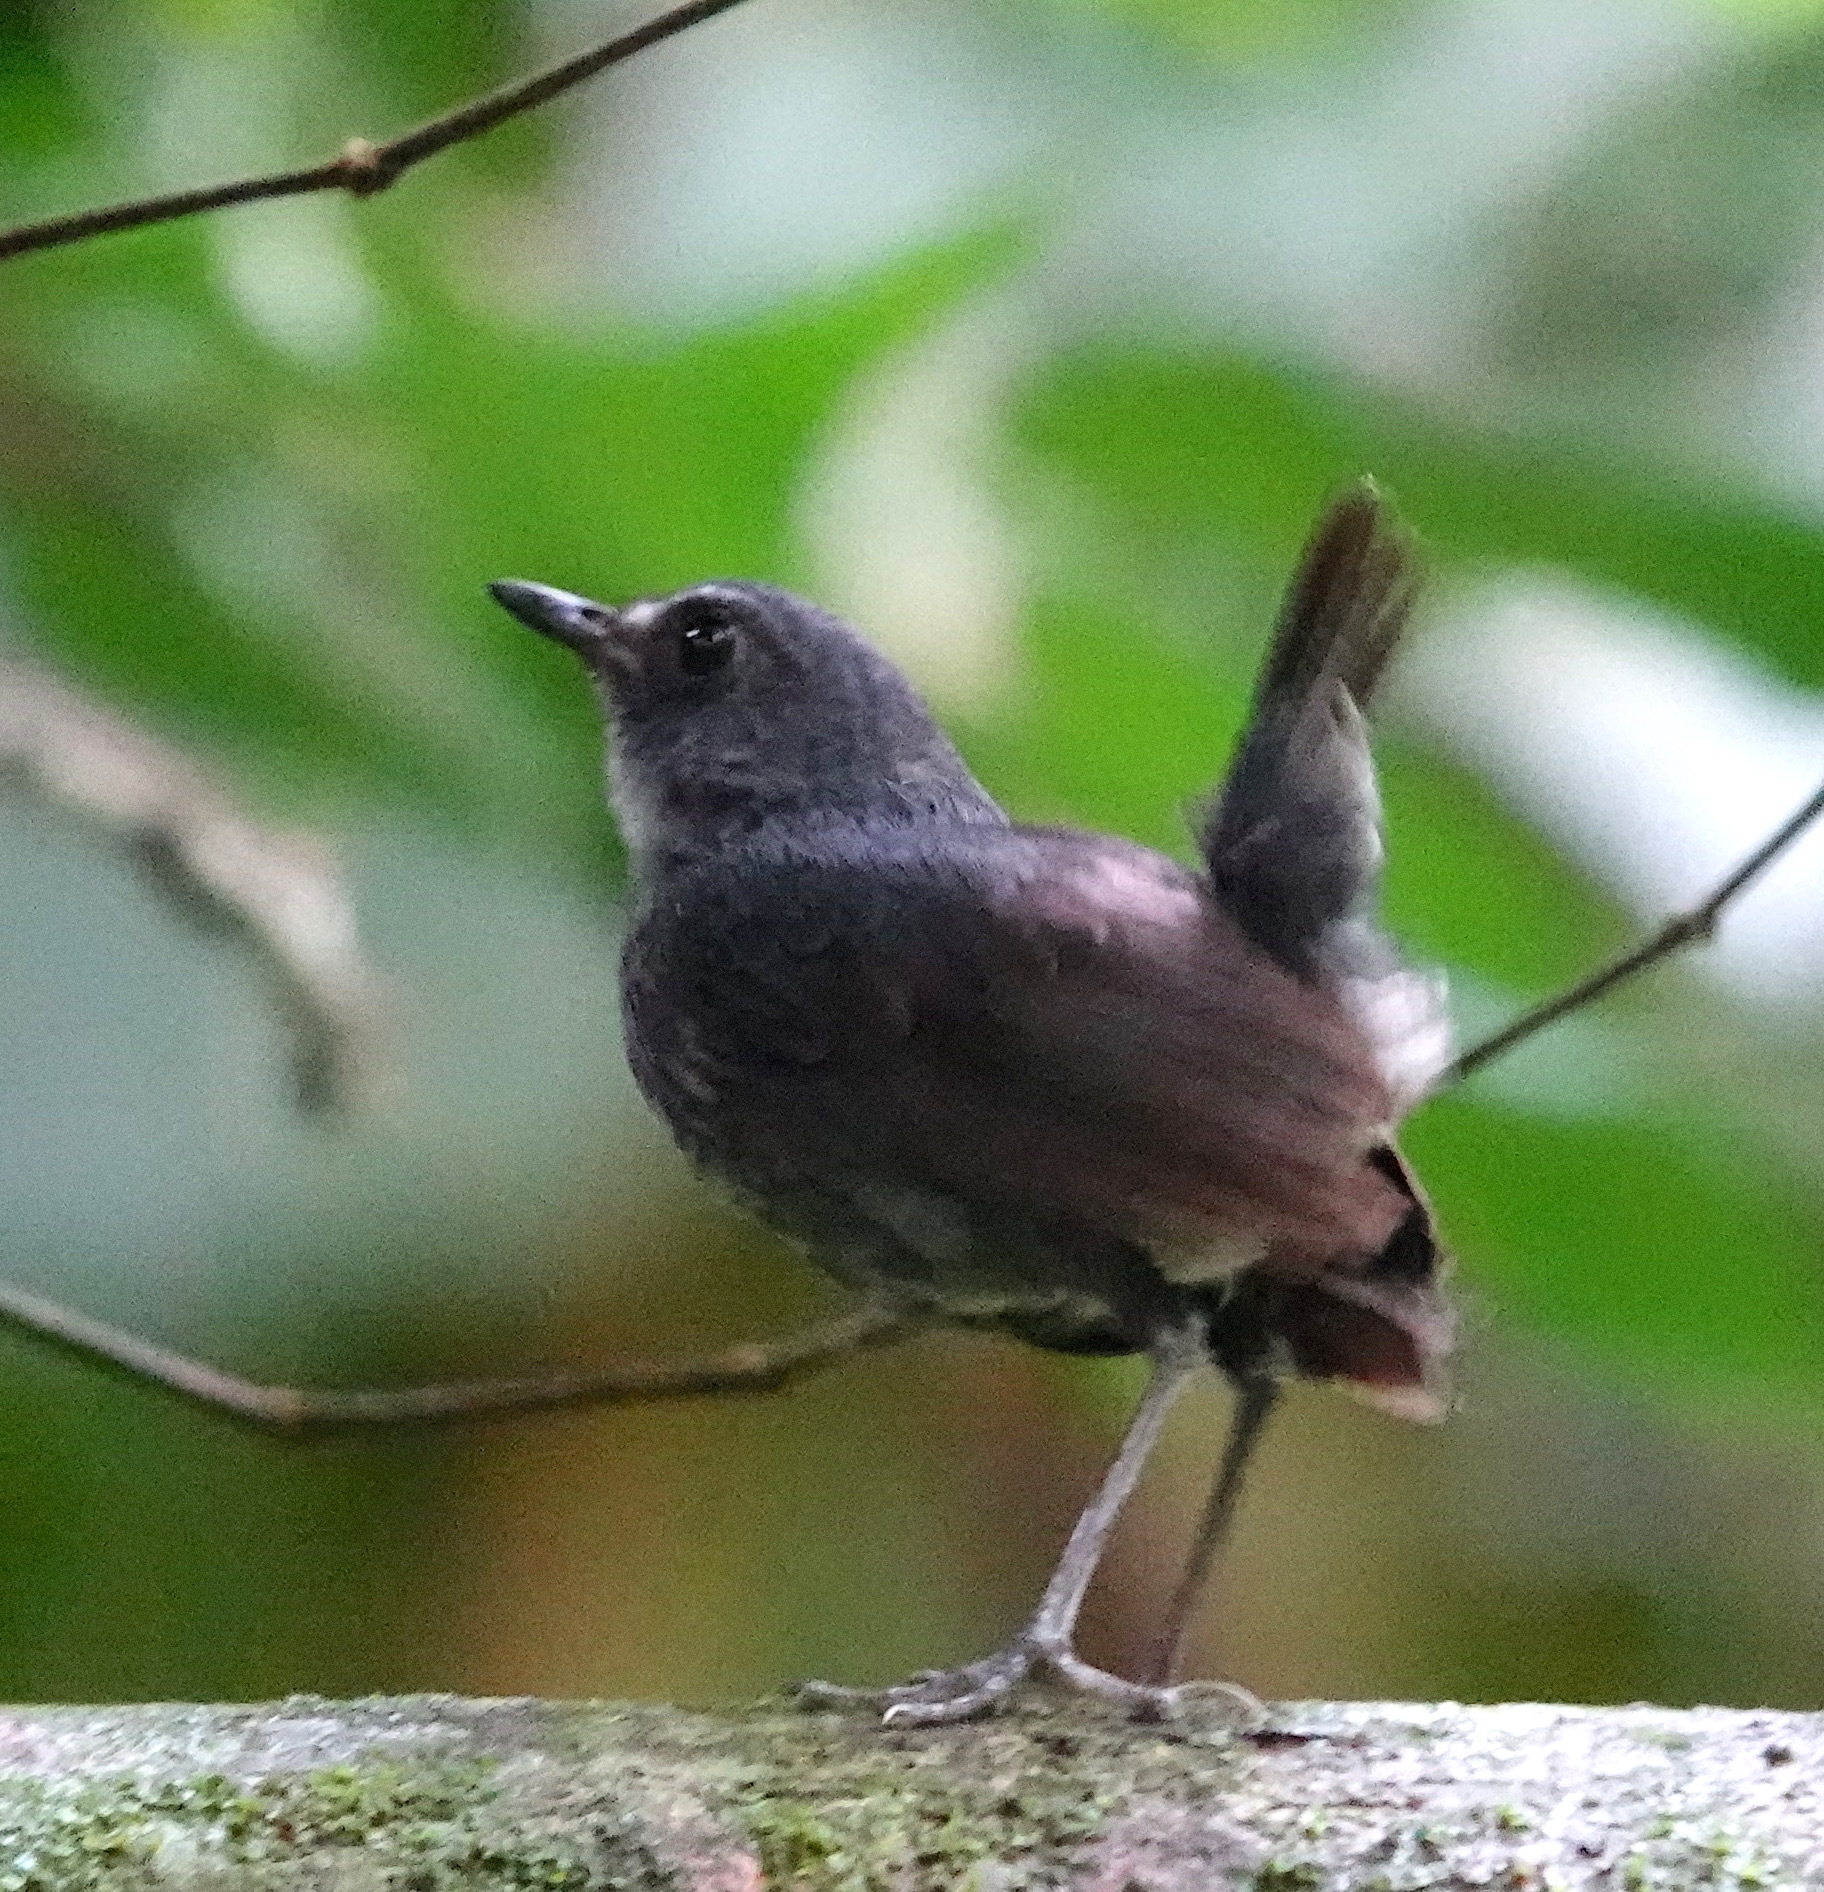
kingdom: Animalia
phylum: Chordata
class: Aves
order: Passeriformes
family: Muscicapidae
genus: Brachypteryx
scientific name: Brachypteryx leucophris
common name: Lesser shortwing
